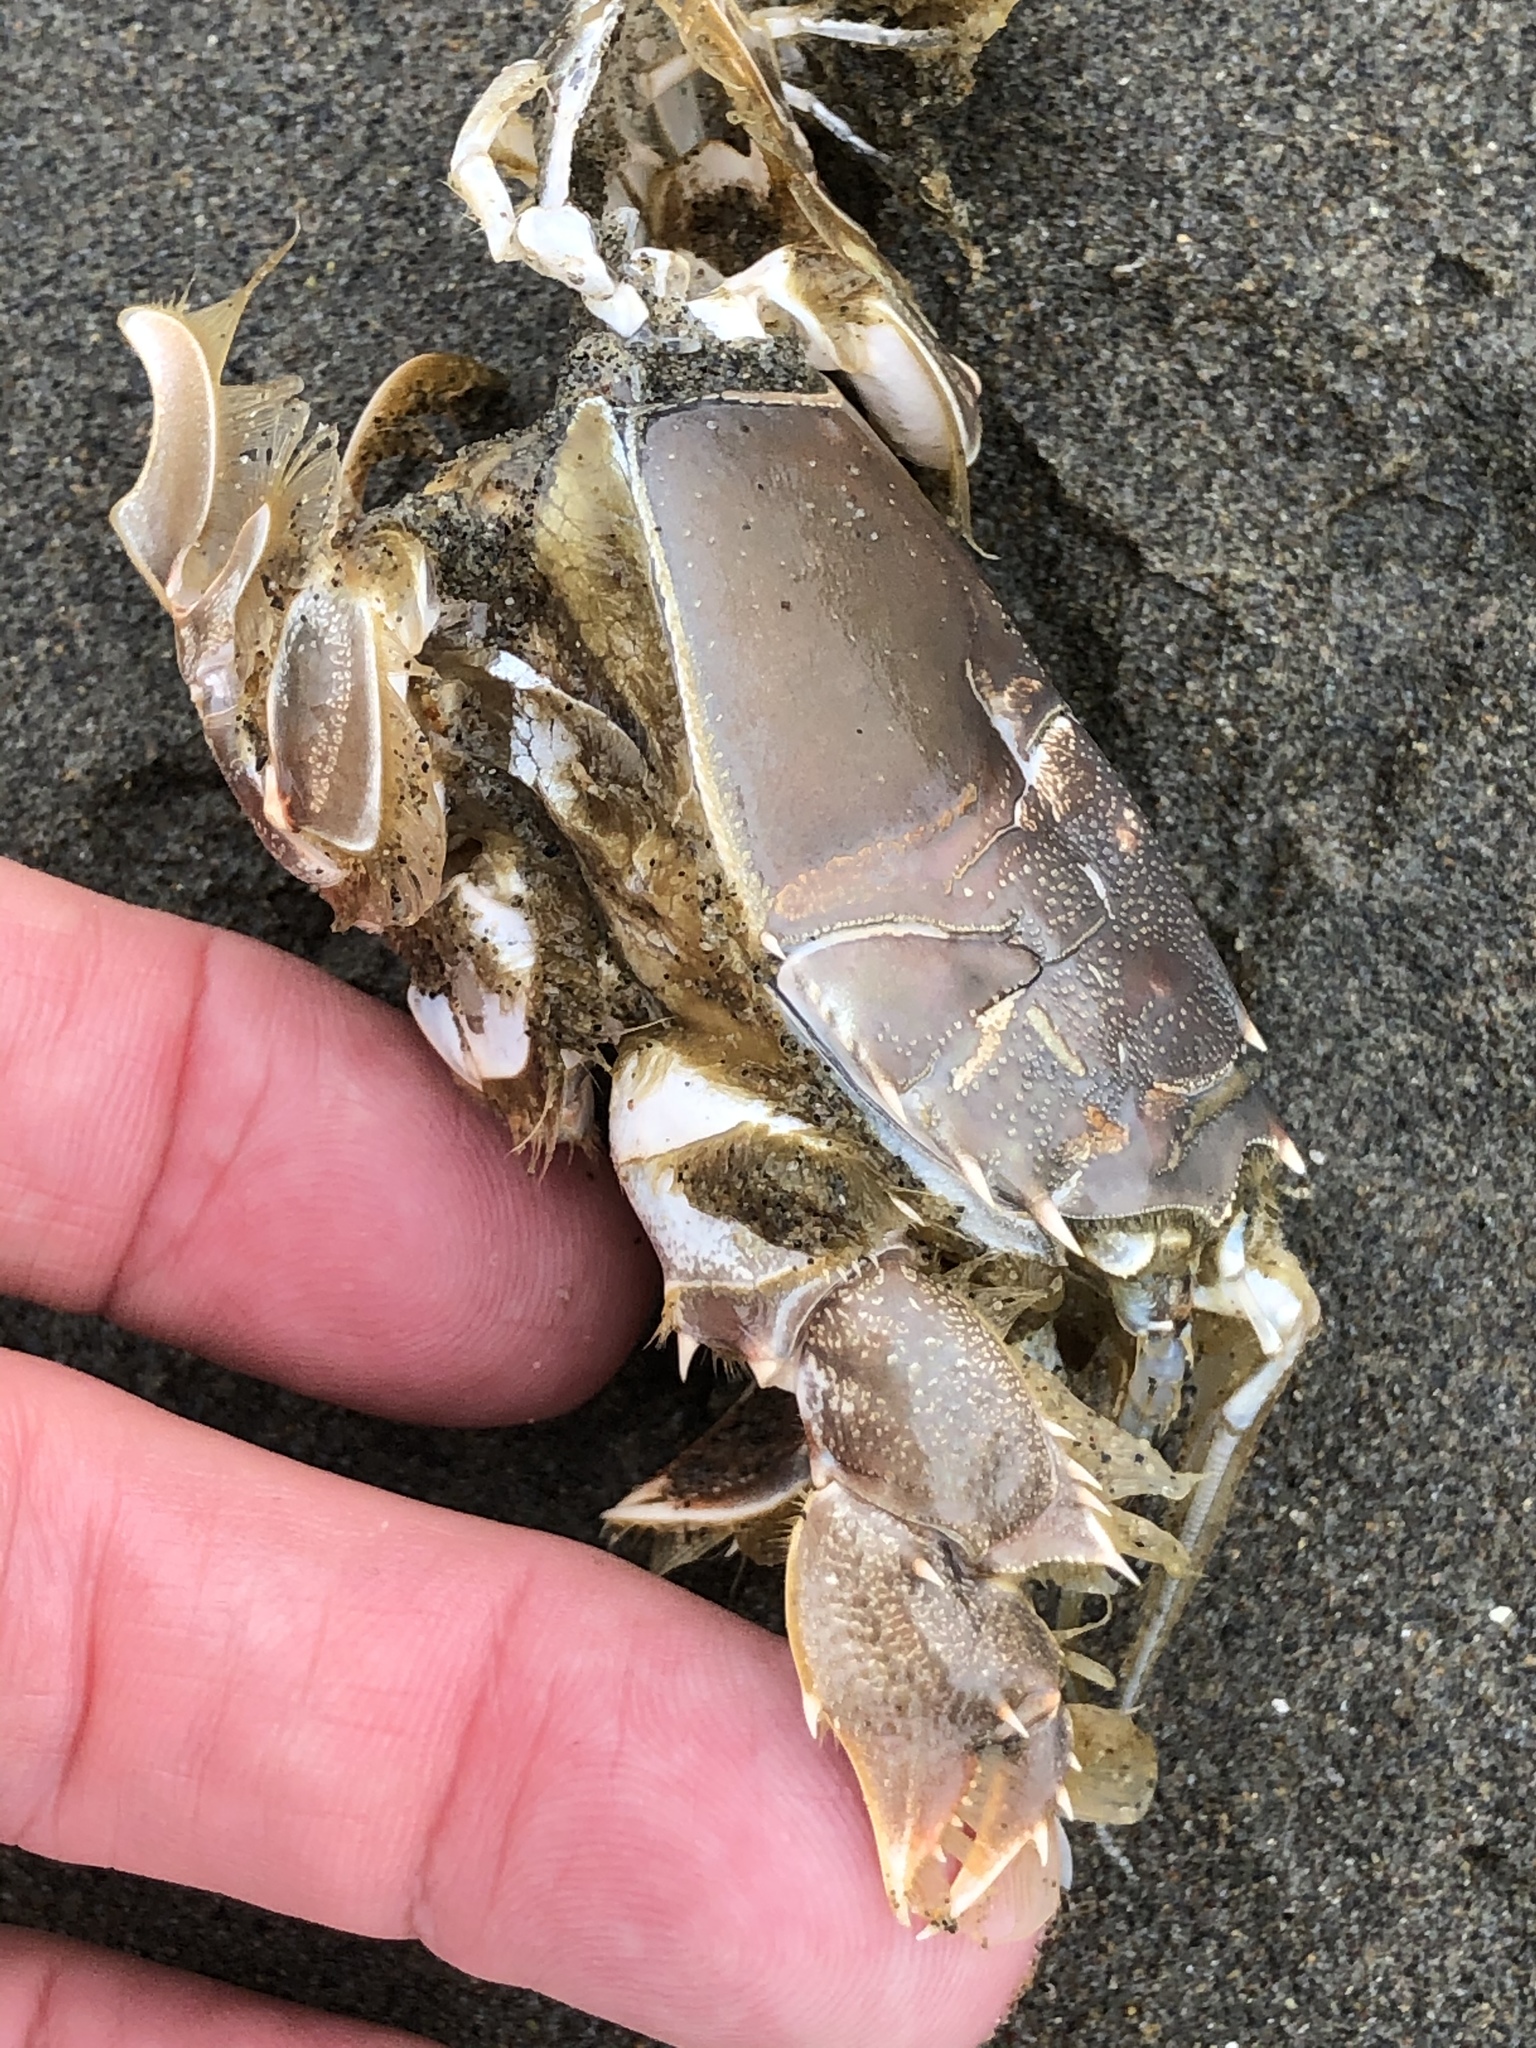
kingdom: Animalia
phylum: Arthropoda
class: Malacostraca
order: Decapoda
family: Blepharipodidae
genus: Blepharipoda
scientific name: Blepharipoda occidentalis
